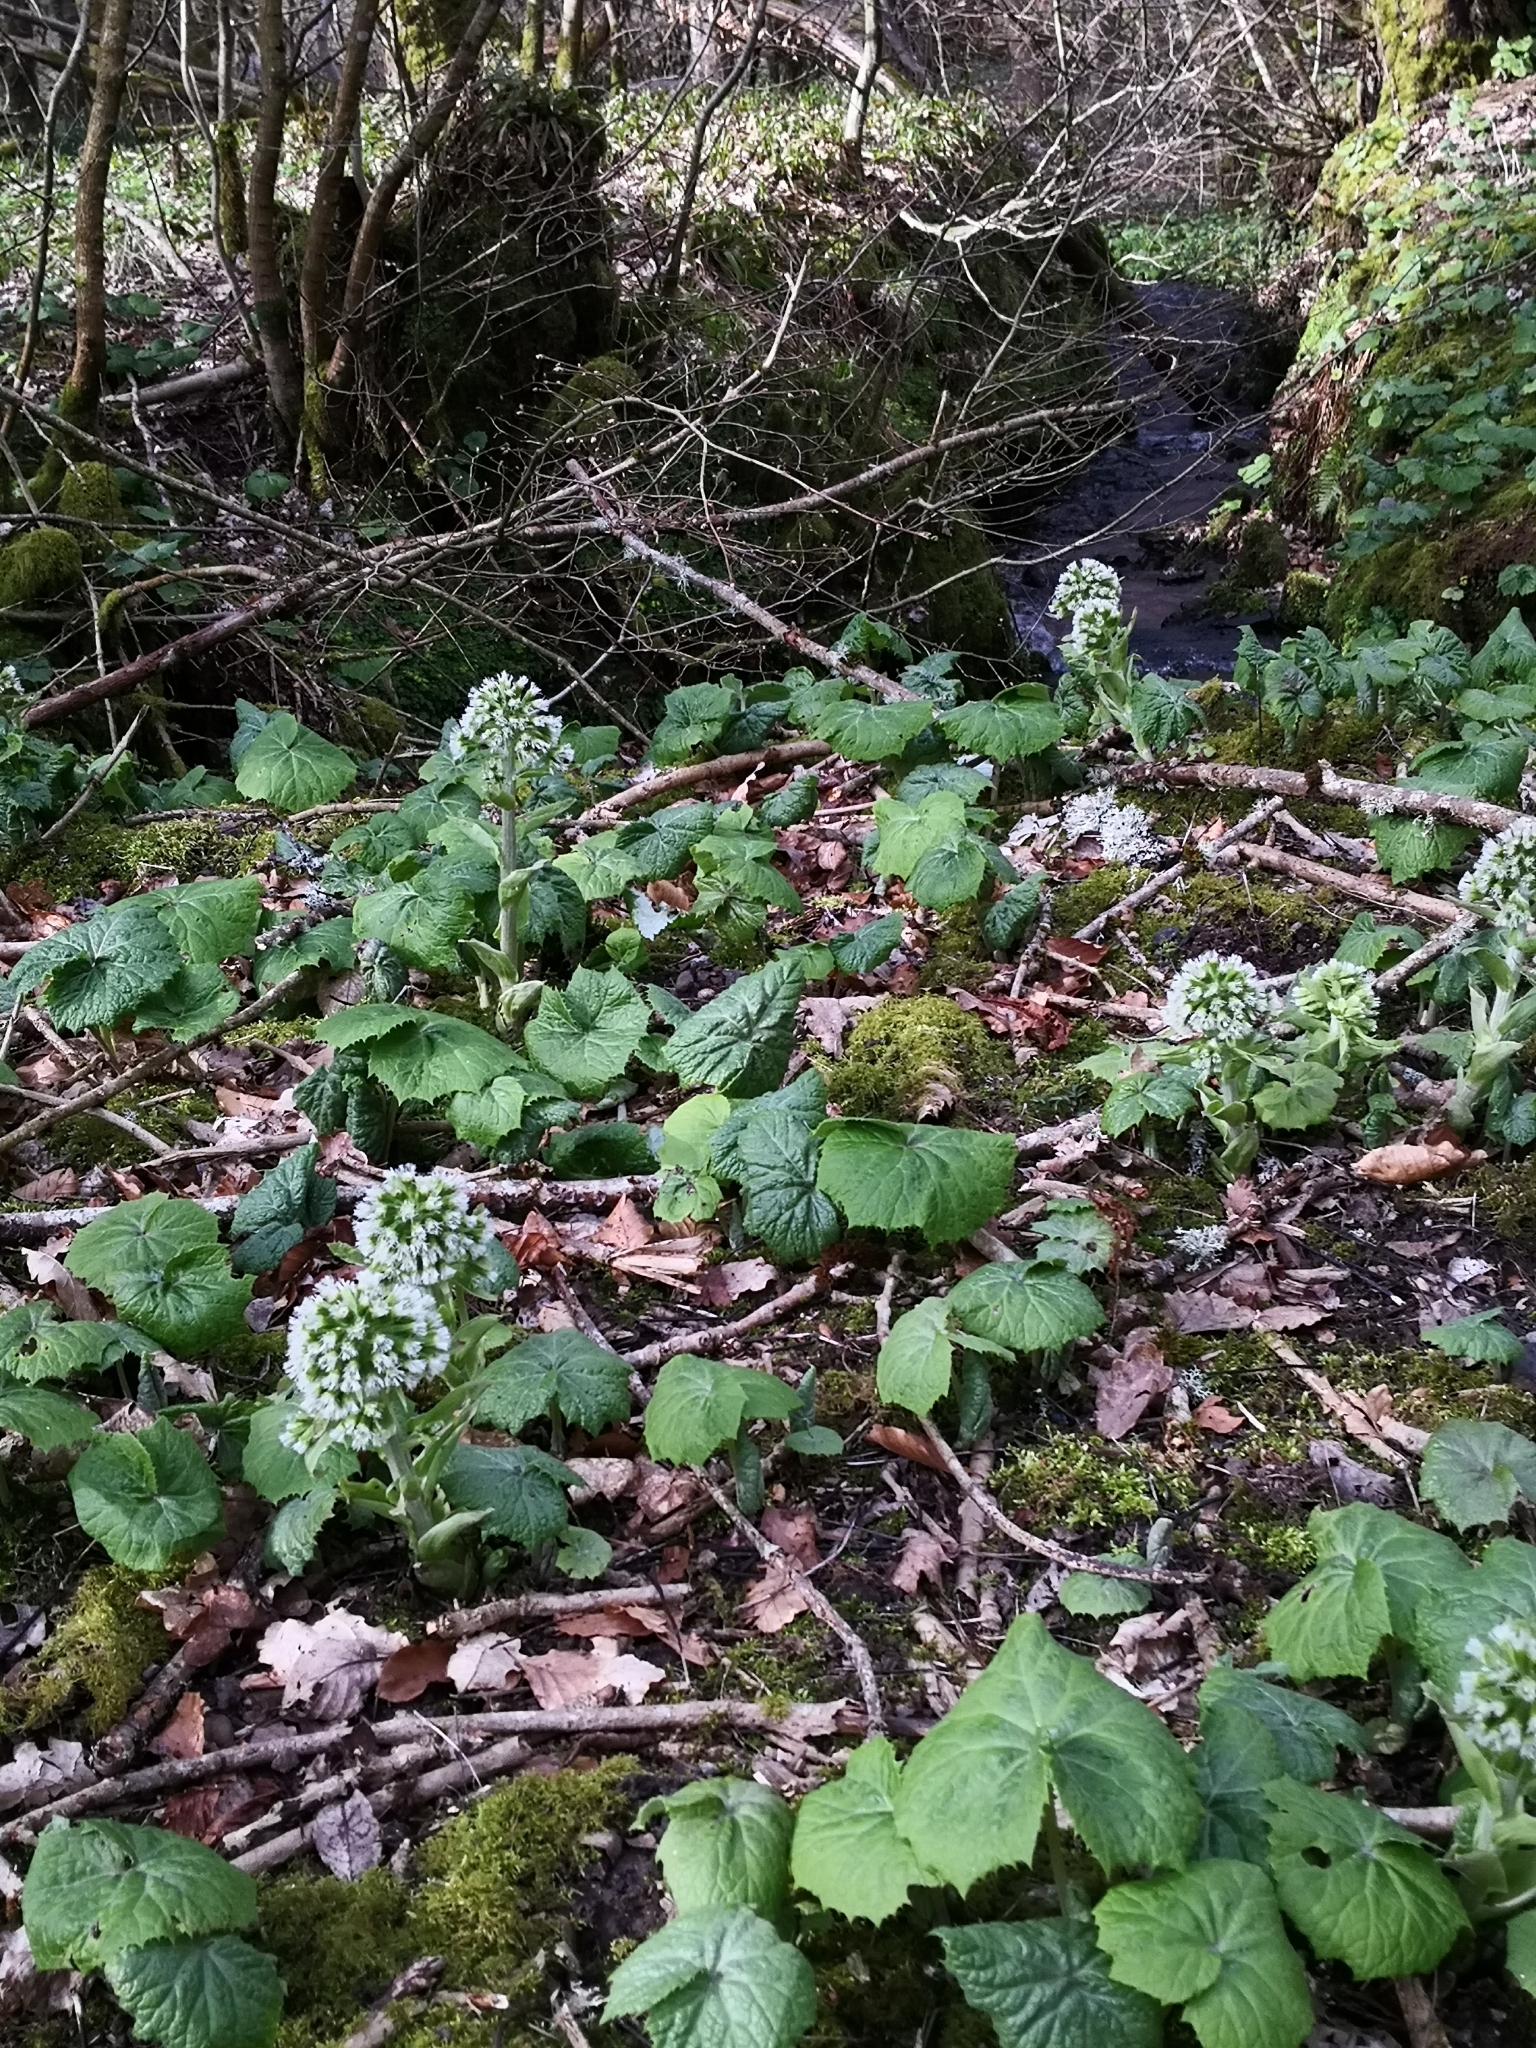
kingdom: Plantae
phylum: Tracheophyta
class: Magnoliopsida
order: Asterales
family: Asteraceae
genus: Petasites
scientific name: Petasites albus
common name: White butterbur
